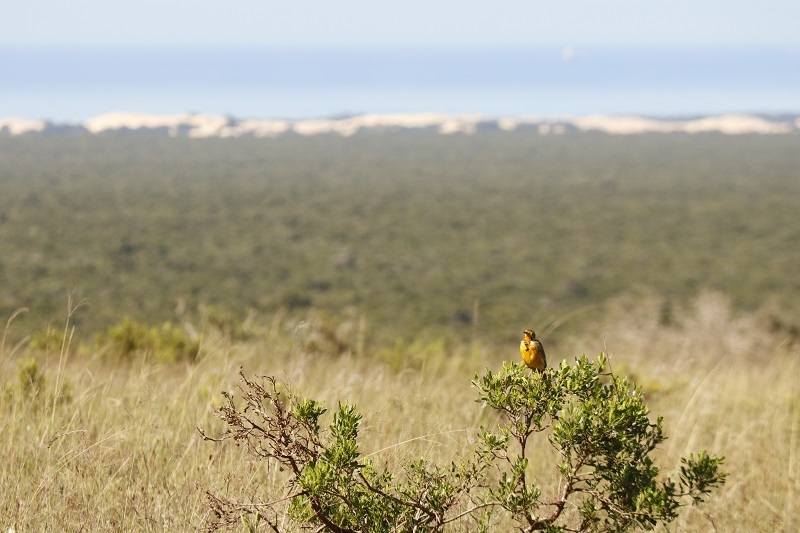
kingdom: Animalia
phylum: Chordata
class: Aves
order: Passeriformes
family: Motacillidae
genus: Macronyx
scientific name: Macronyx capensis
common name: Cape longclaw
